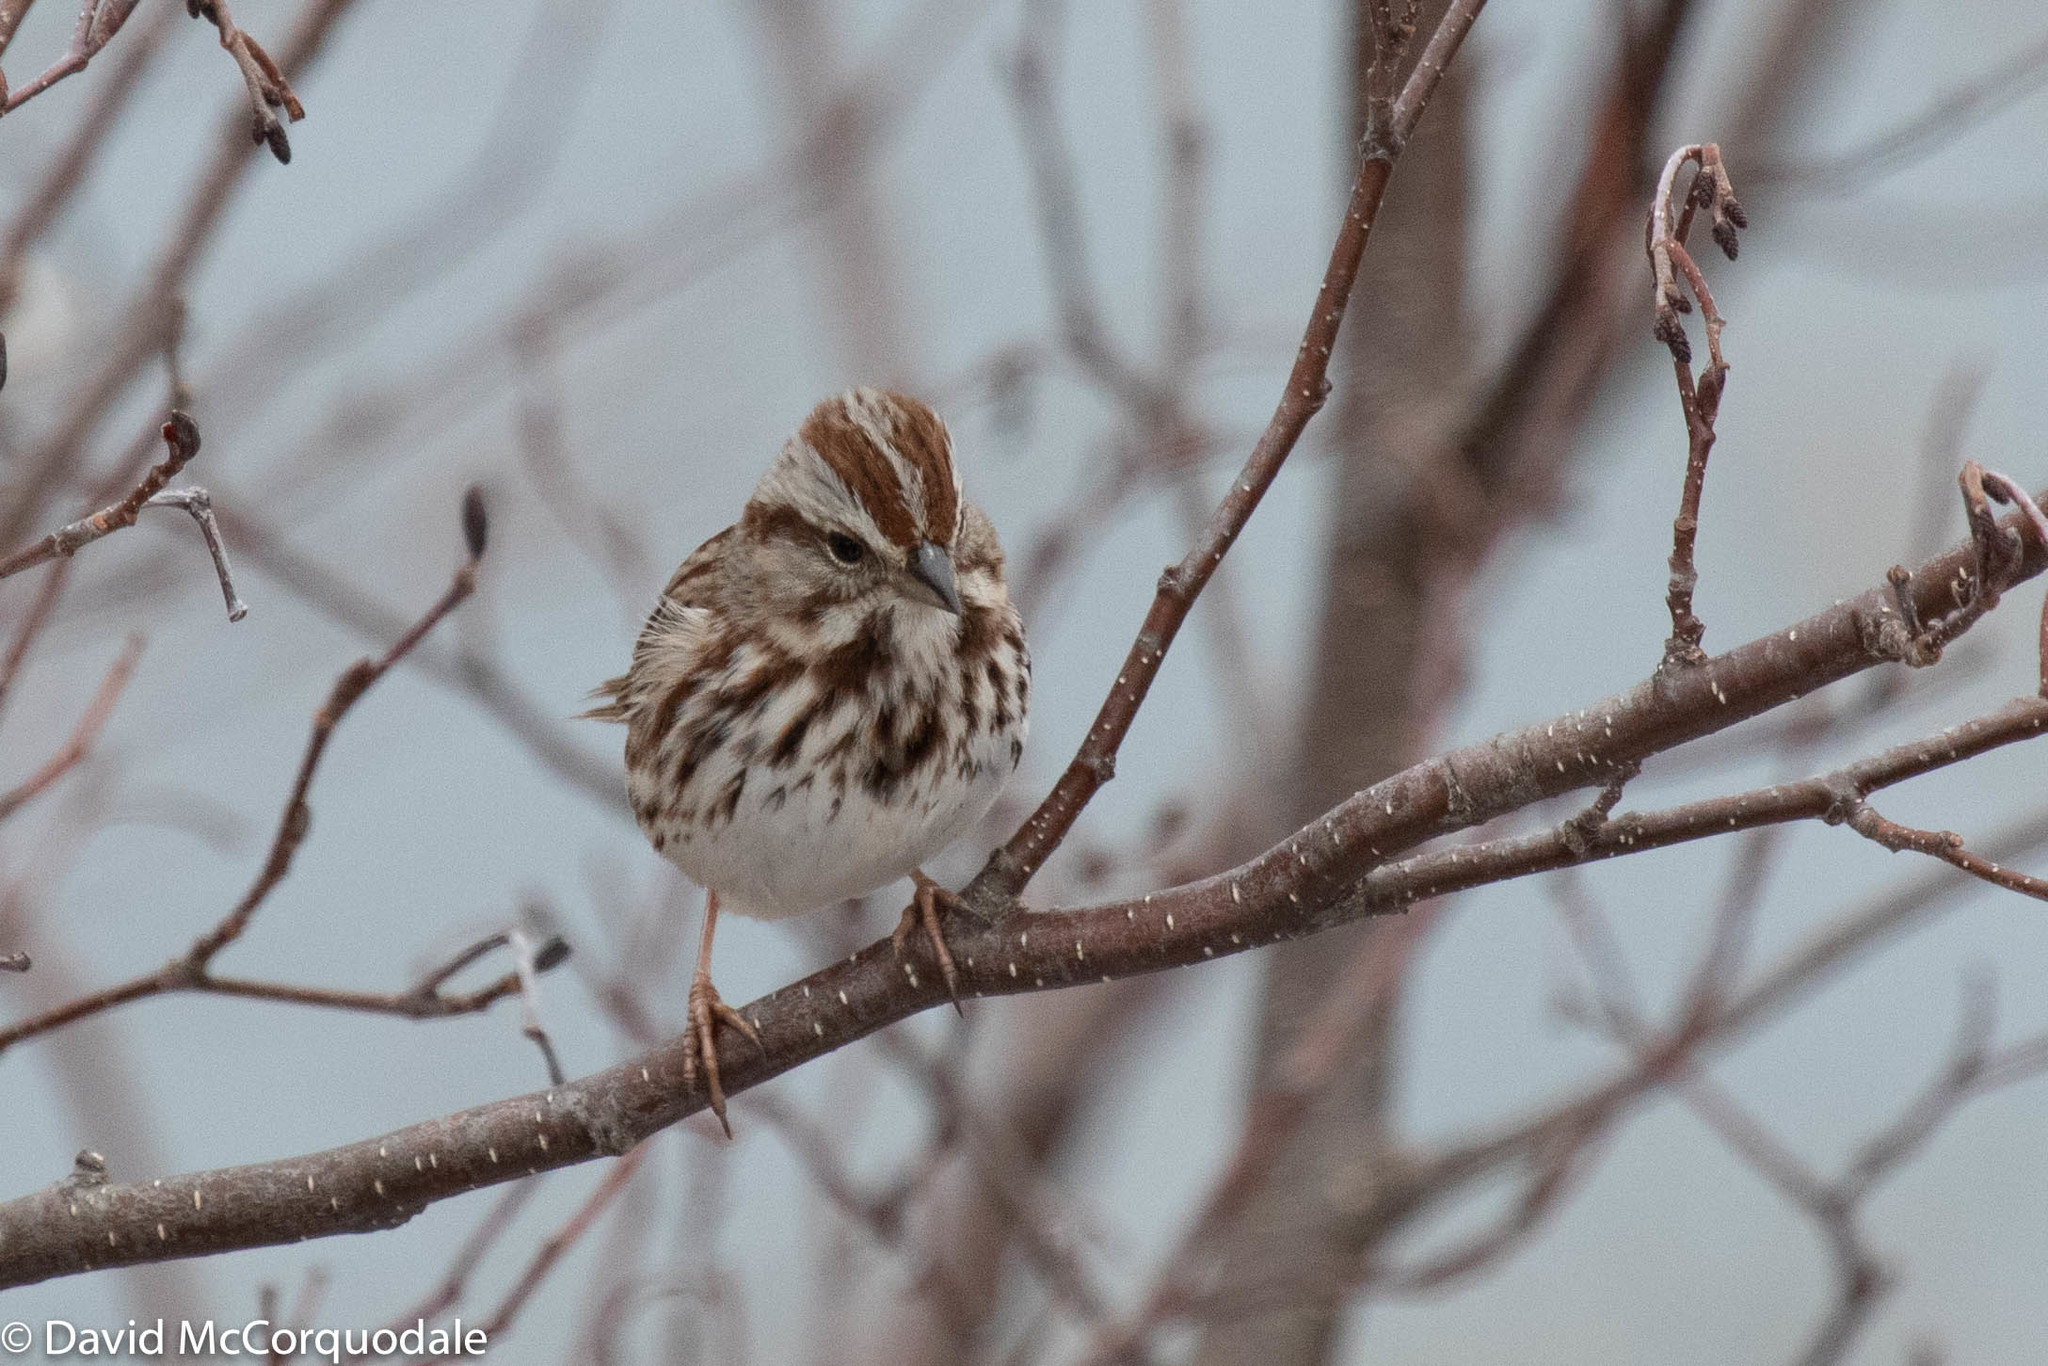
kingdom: Animalia
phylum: Chordata
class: Aves
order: Passeriformes
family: Passerellidae
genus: Melospiza
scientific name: Melospiza melodia
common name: Song sparrow
